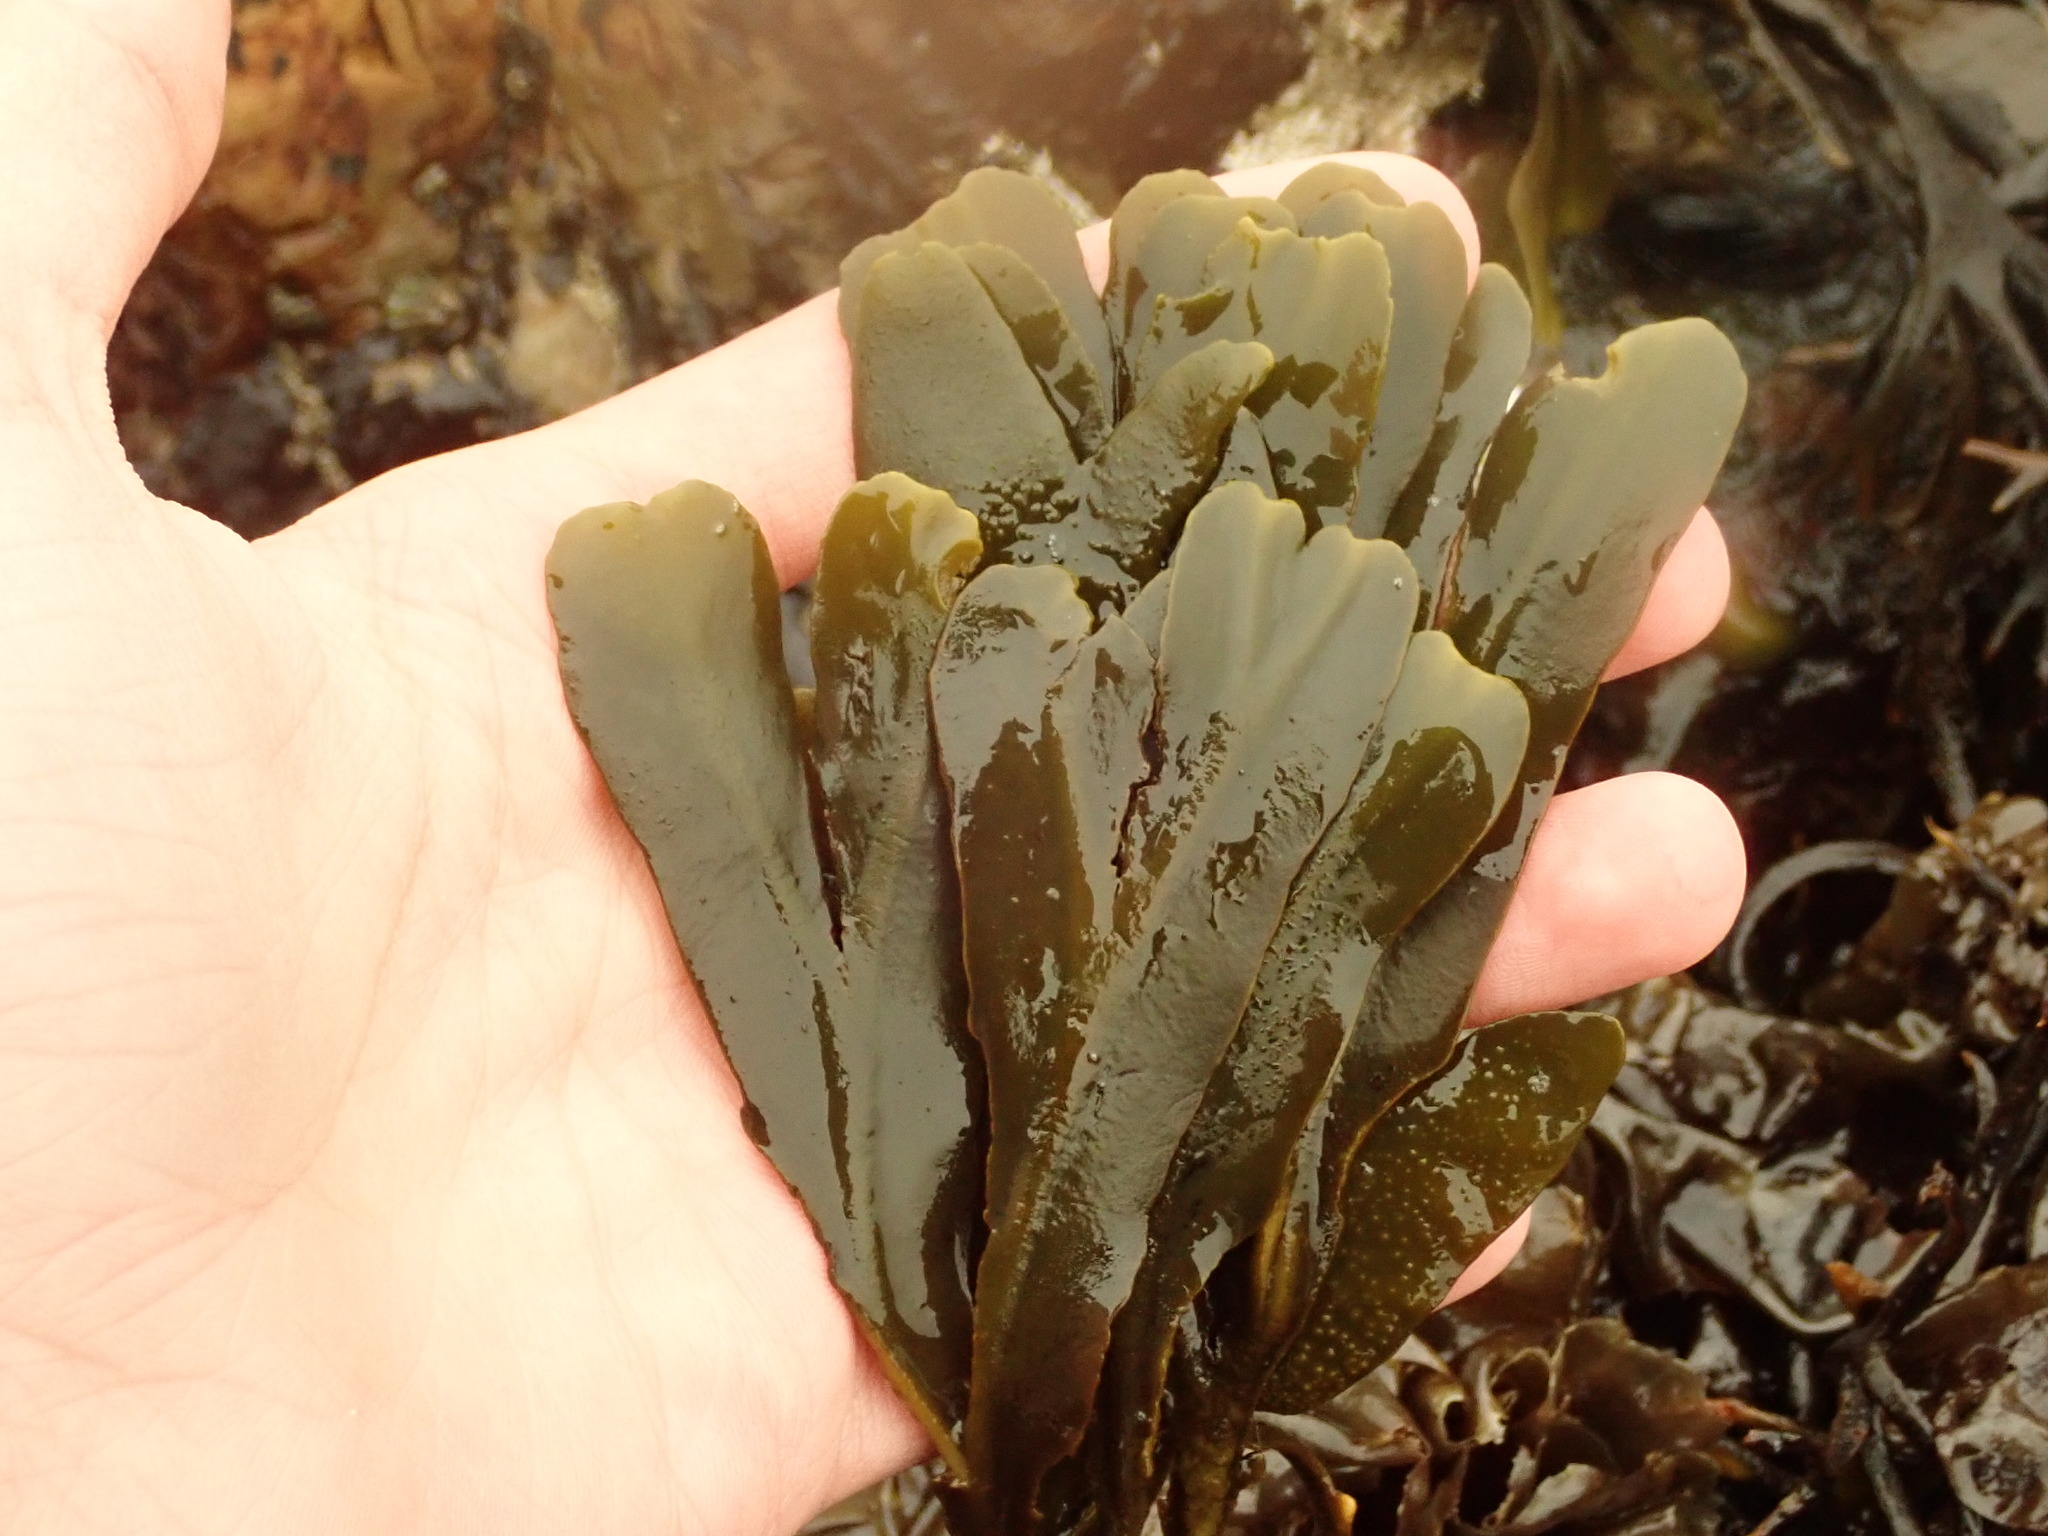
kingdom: Chromista
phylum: Ochrophyta
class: Phaeophyceae
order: Fucales
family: Fucaceae
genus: Fucus
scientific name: Fucus distichus
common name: Rockweed
